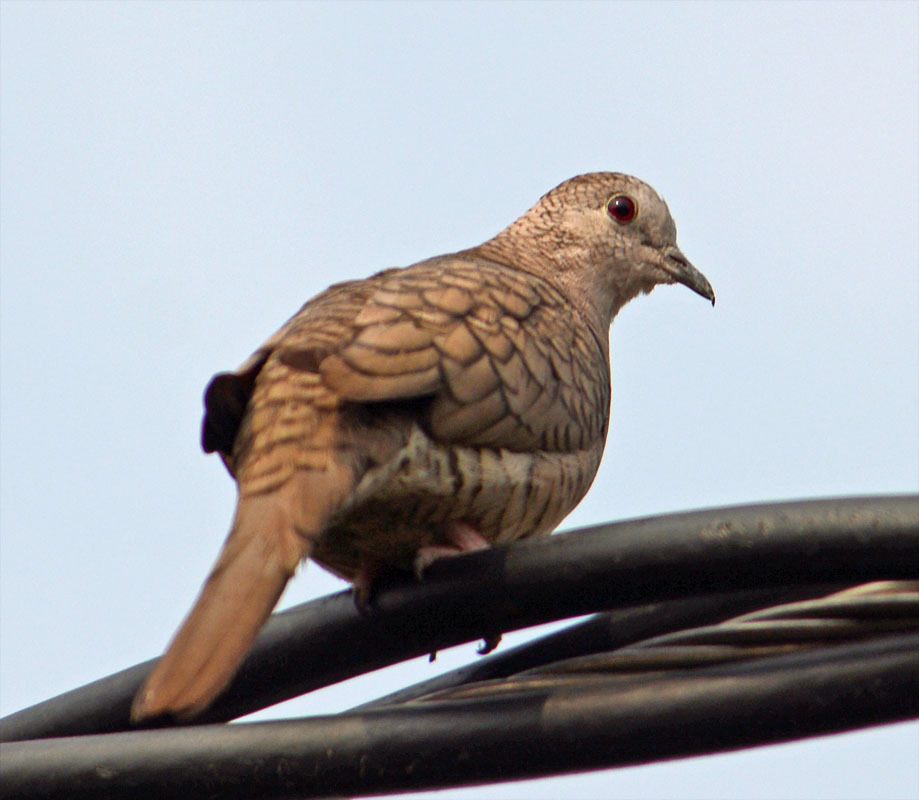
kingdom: Animalia
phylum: Chordata
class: Aves
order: Columbiformes
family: Columbidae
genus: Columbina
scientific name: Columbina inca
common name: Inca dove
